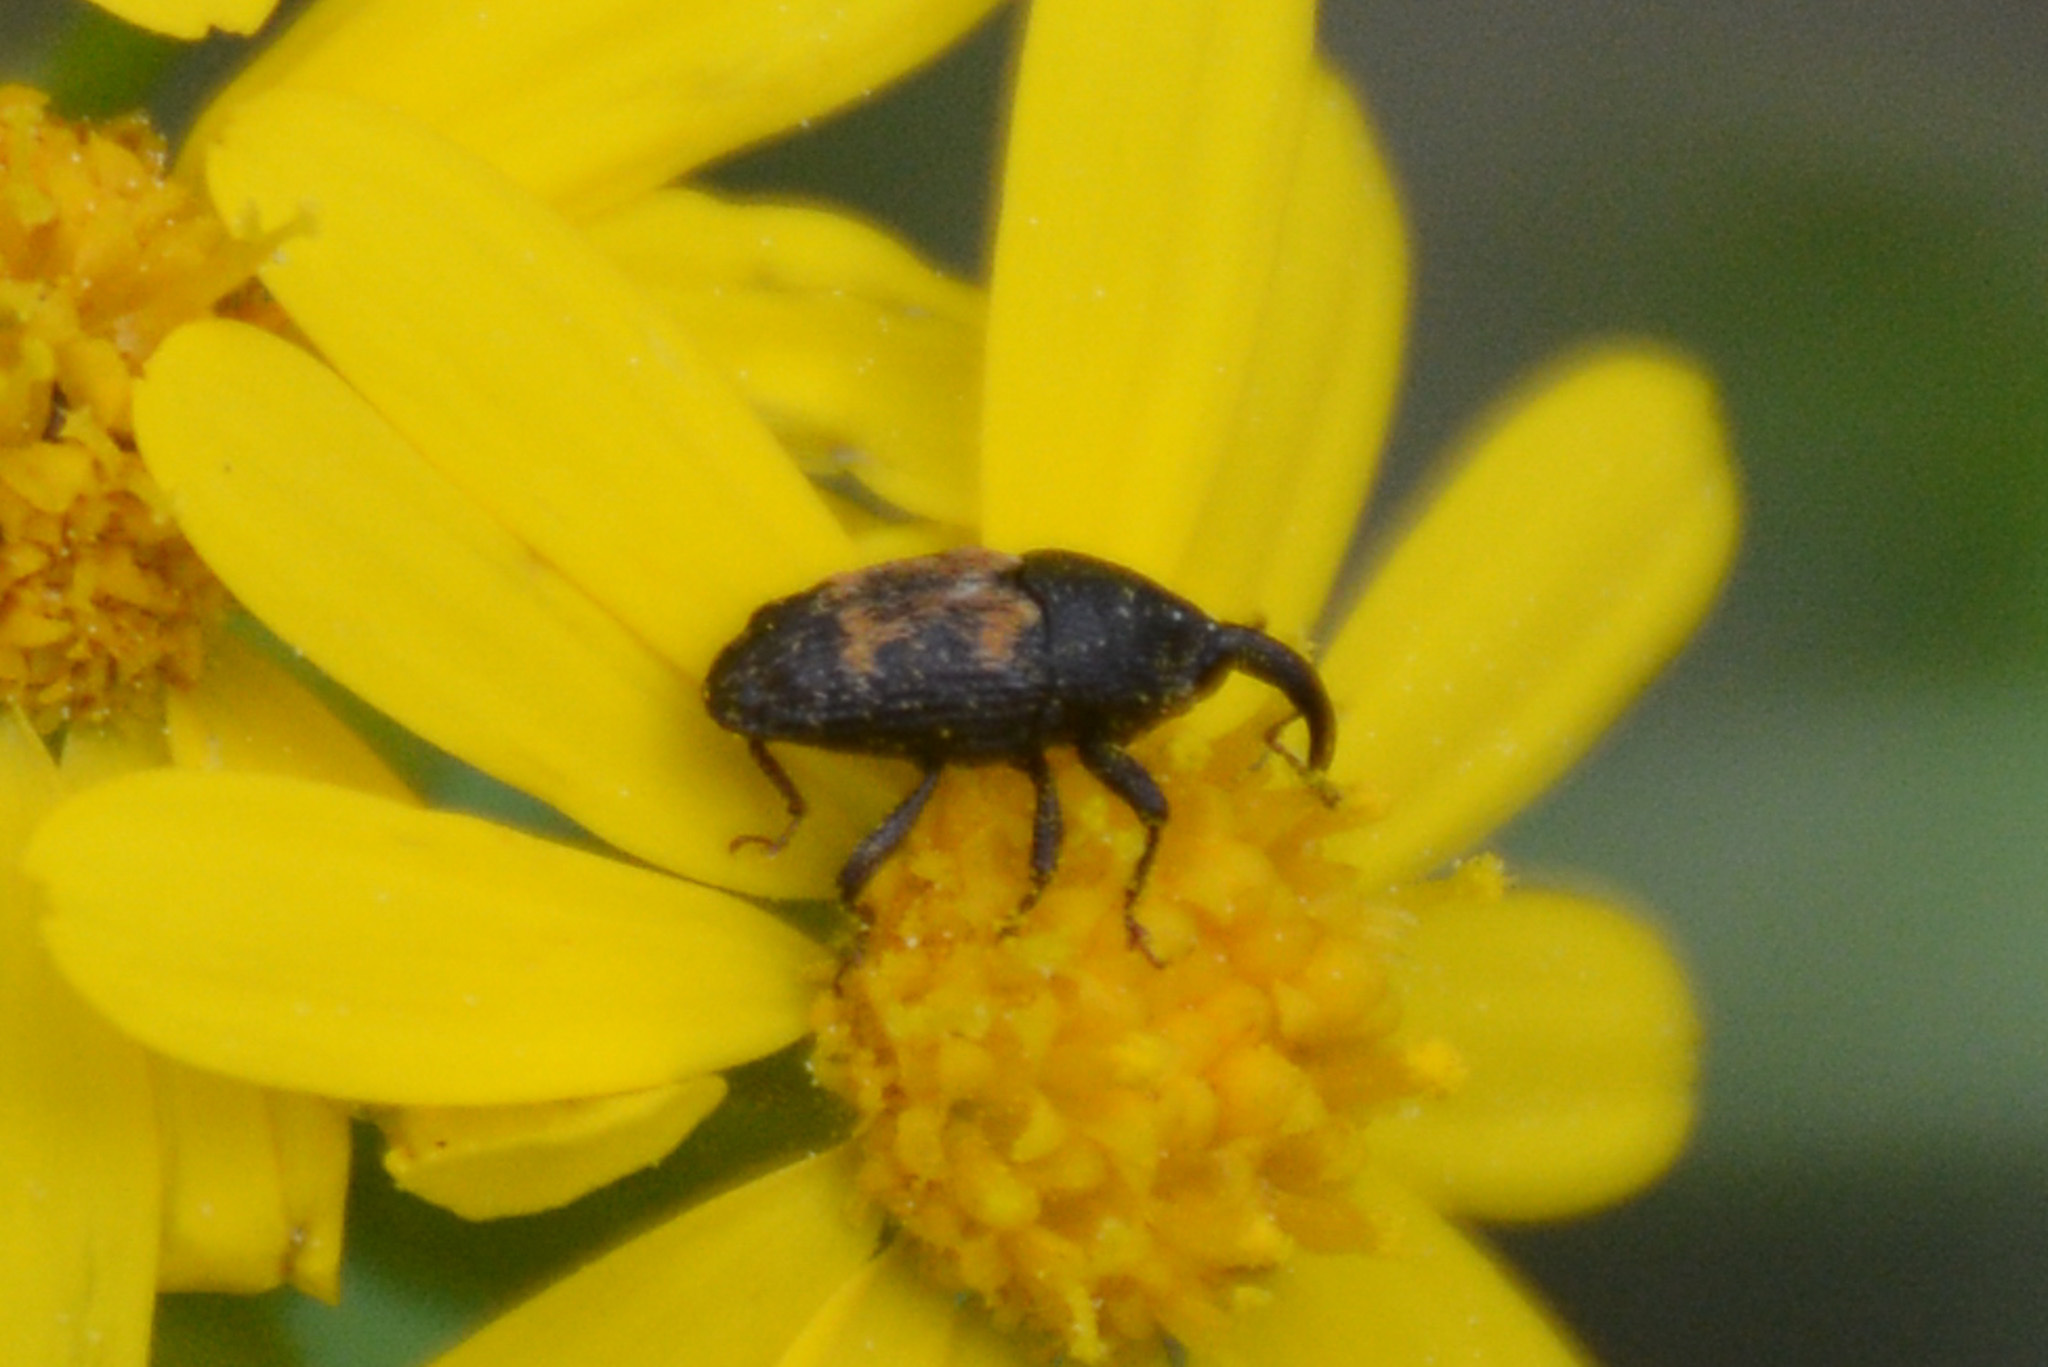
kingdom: Animalia
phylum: Arthropoda
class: Insecta
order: Coleoptera
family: Curculionidae
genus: Glyptobaris
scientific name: Glyptobaris lecontei
